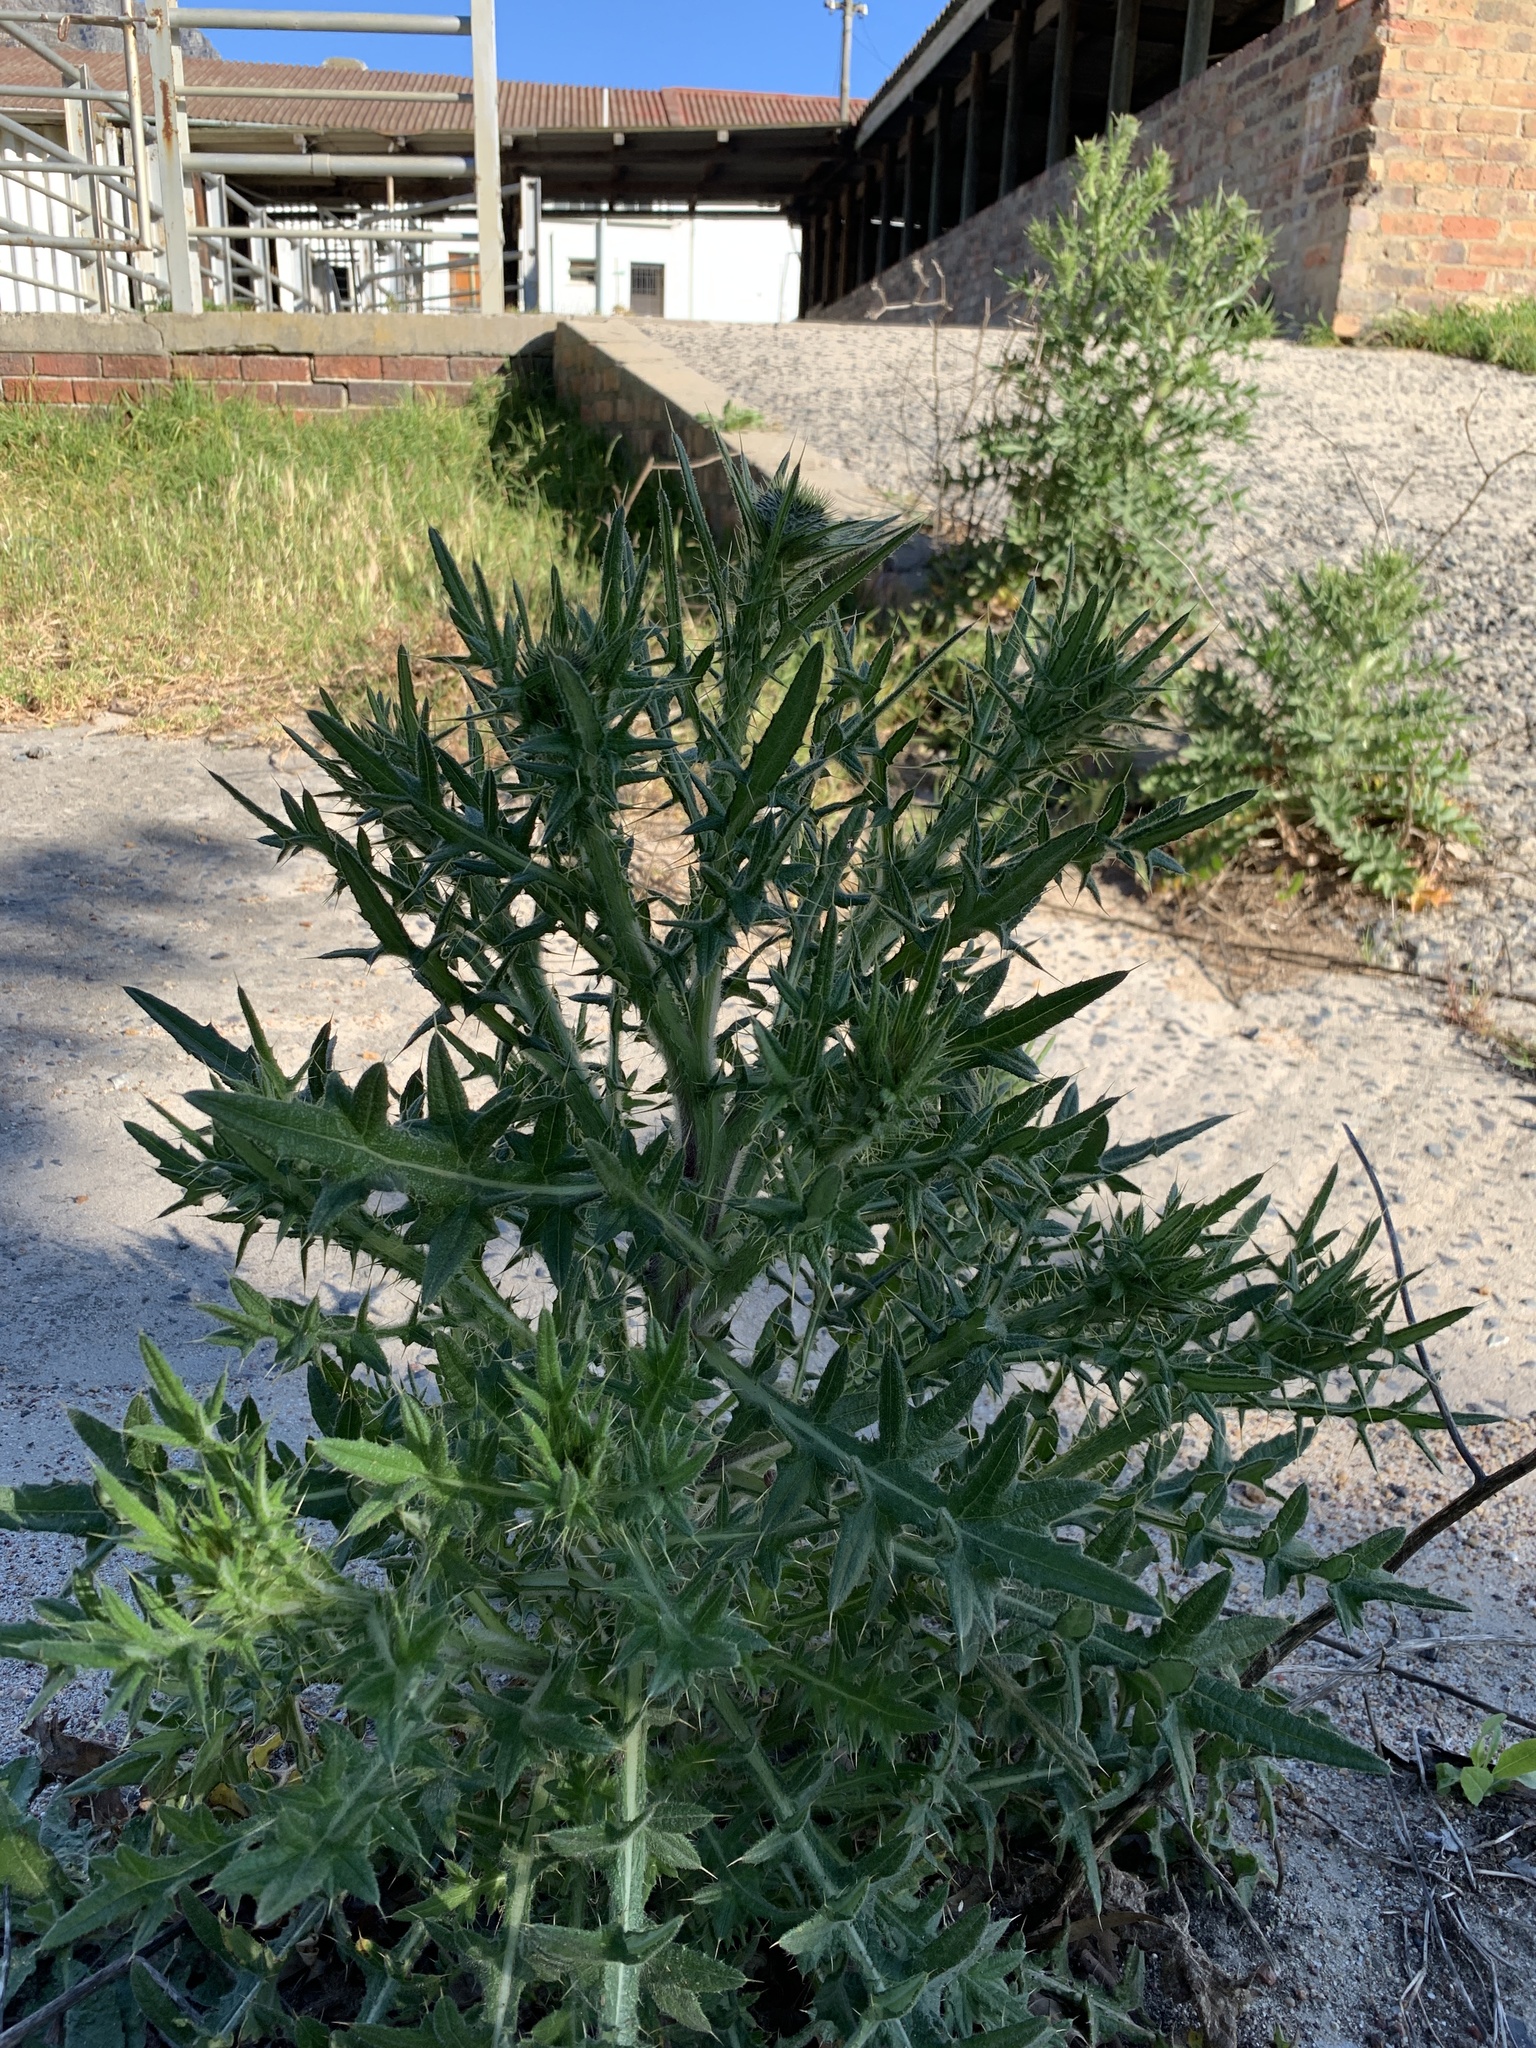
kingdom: Plantae
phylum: Tracheophyta
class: Magnoliopsida
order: Asterales
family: Asteraceae
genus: Cirsium
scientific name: Cirsium vulgare
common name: Bull thistle
